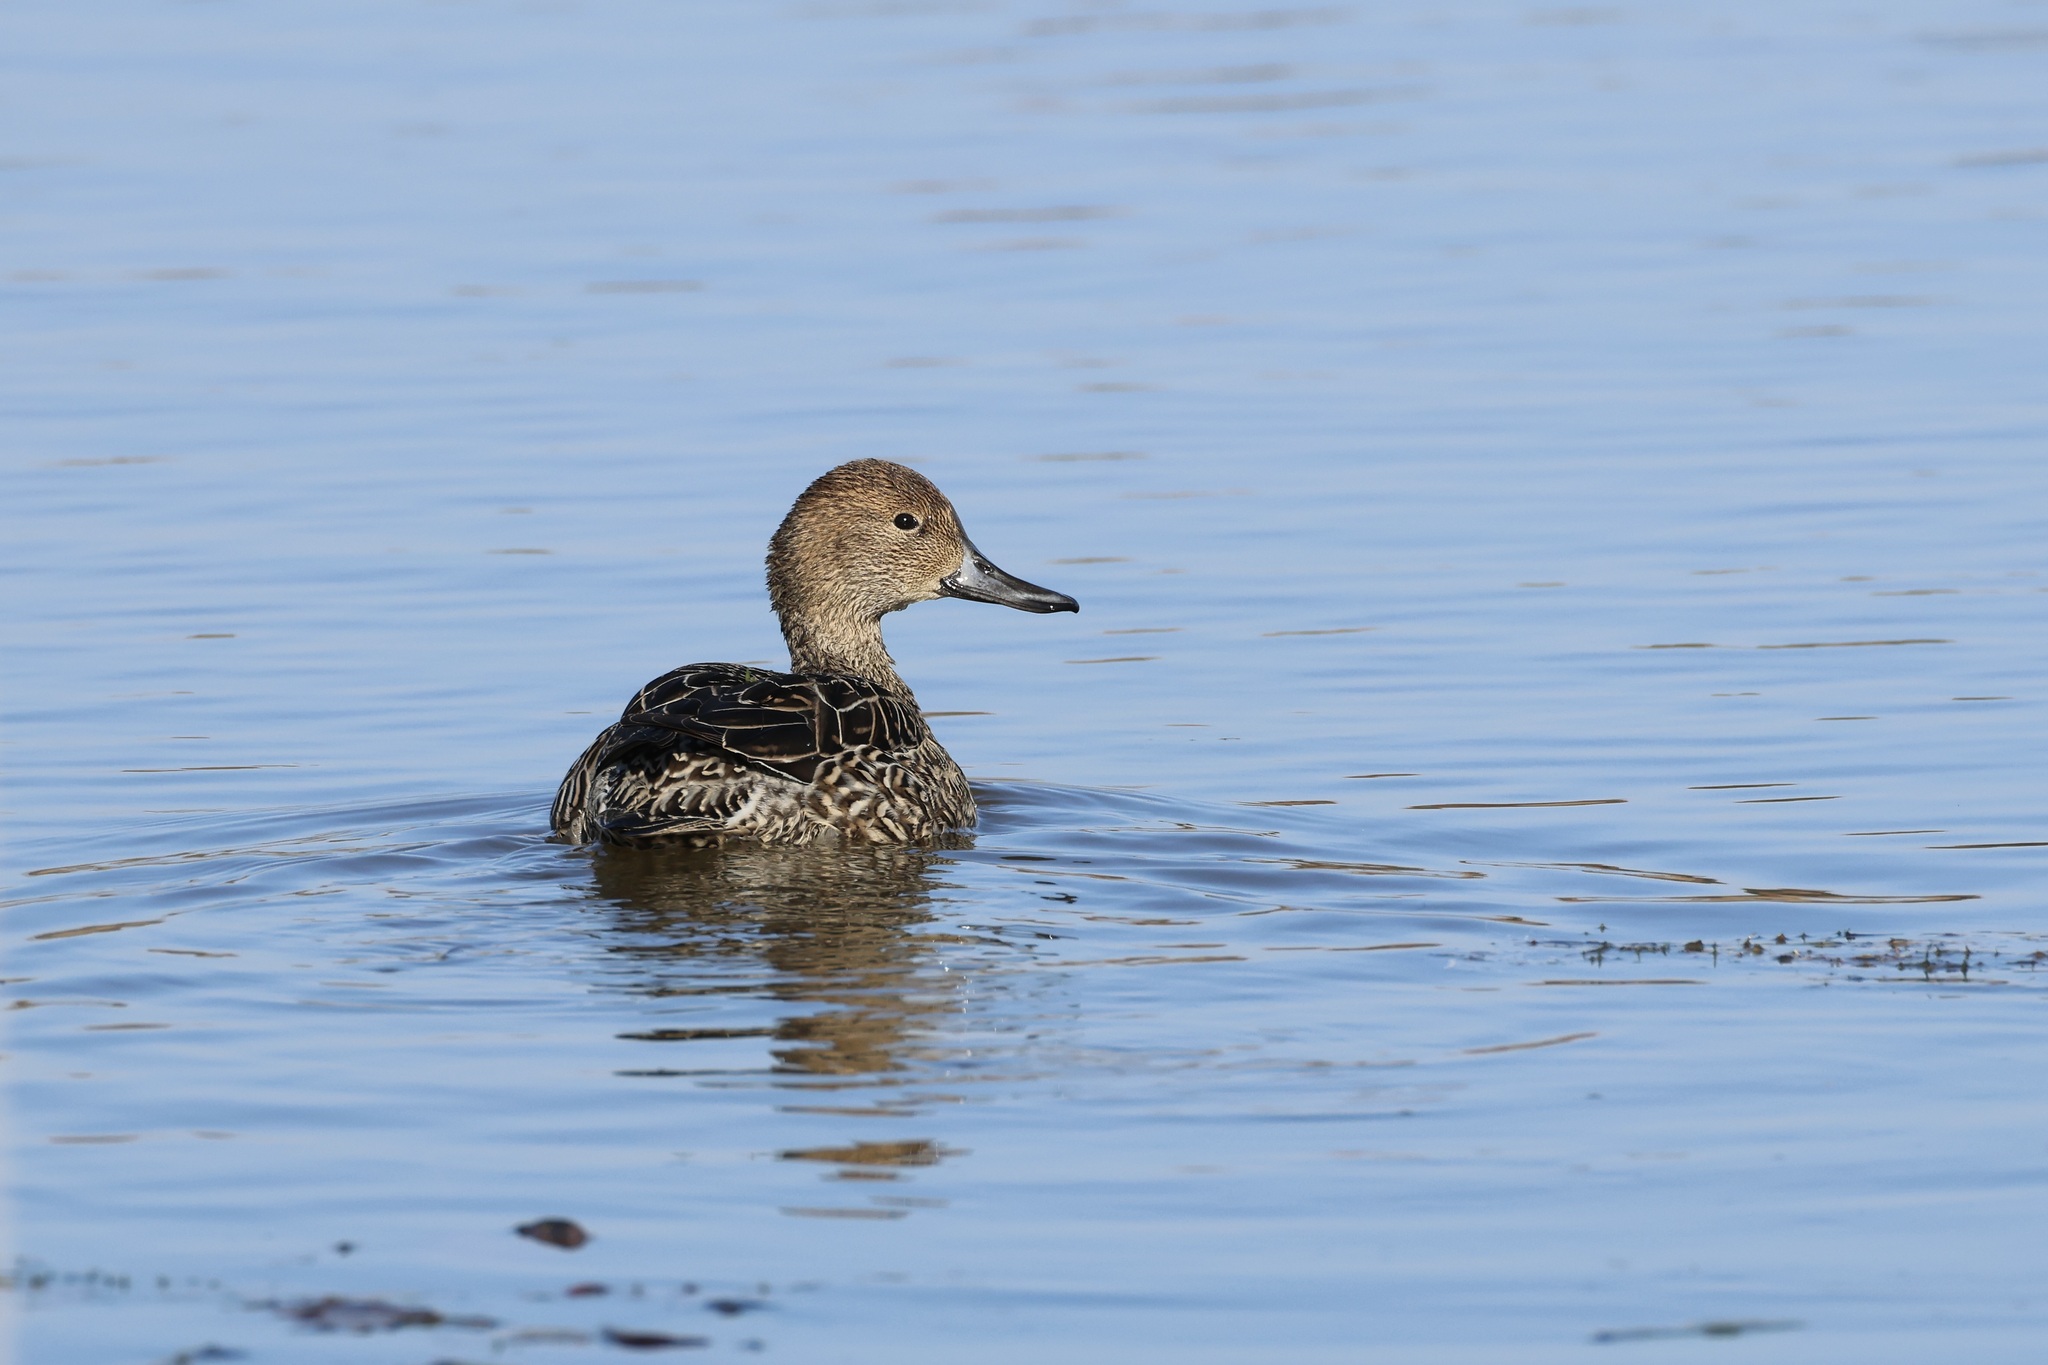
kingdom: Animalia
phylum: Chordata
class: Aves
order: Anseriformes
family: Anatidae
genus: Anas
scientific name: Anas acuta
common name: Northern pintail
